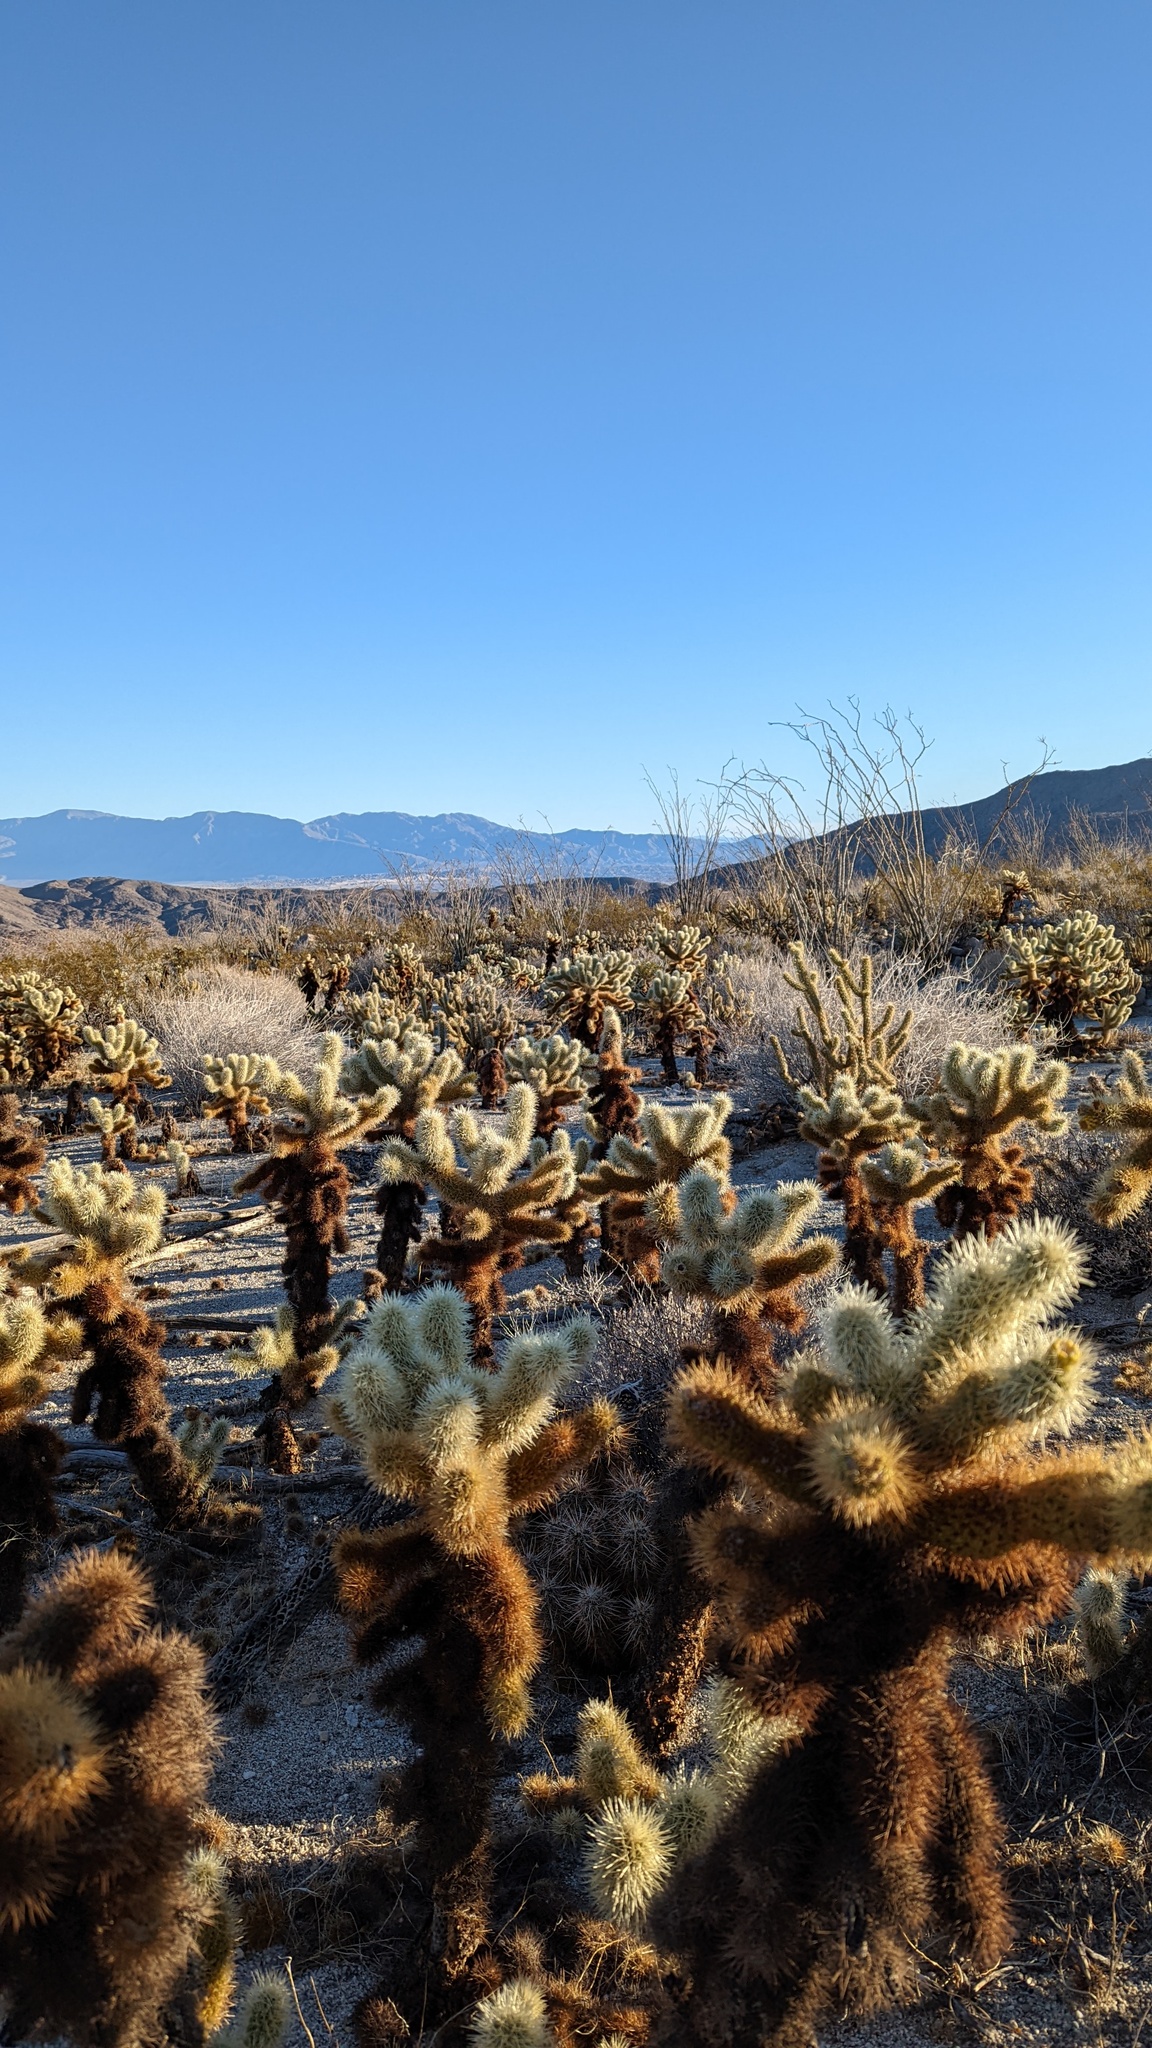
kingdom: Plantae
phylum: Tracheophyta
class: Magnoliopsida
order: Caryophyllales
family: Cactaceae
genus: Cylindropuntia
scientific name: Cylindropuntia fosbergii
